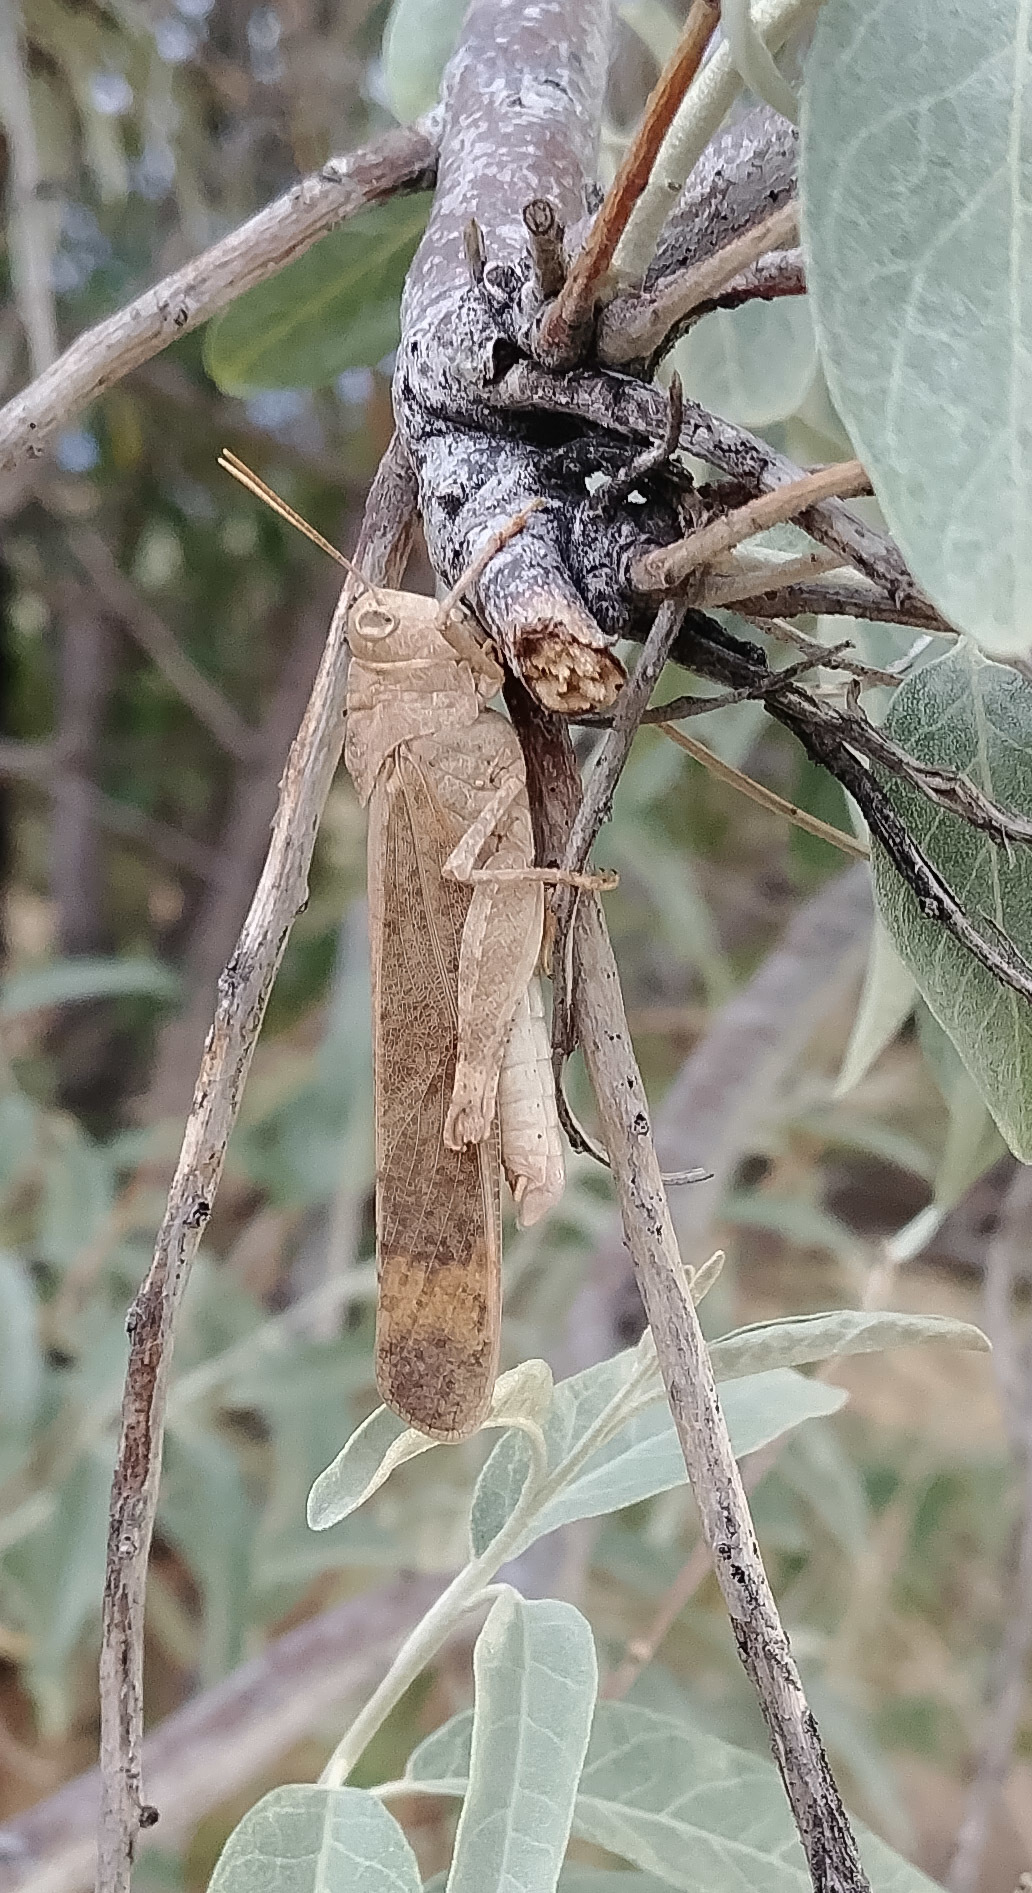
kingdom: Animalia
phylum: Arthropoda
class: Insecta
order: Orthoptera
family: Acrididae
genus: Dissosteira
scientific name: Dissosteira carolina
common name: Carolina grasshopper
